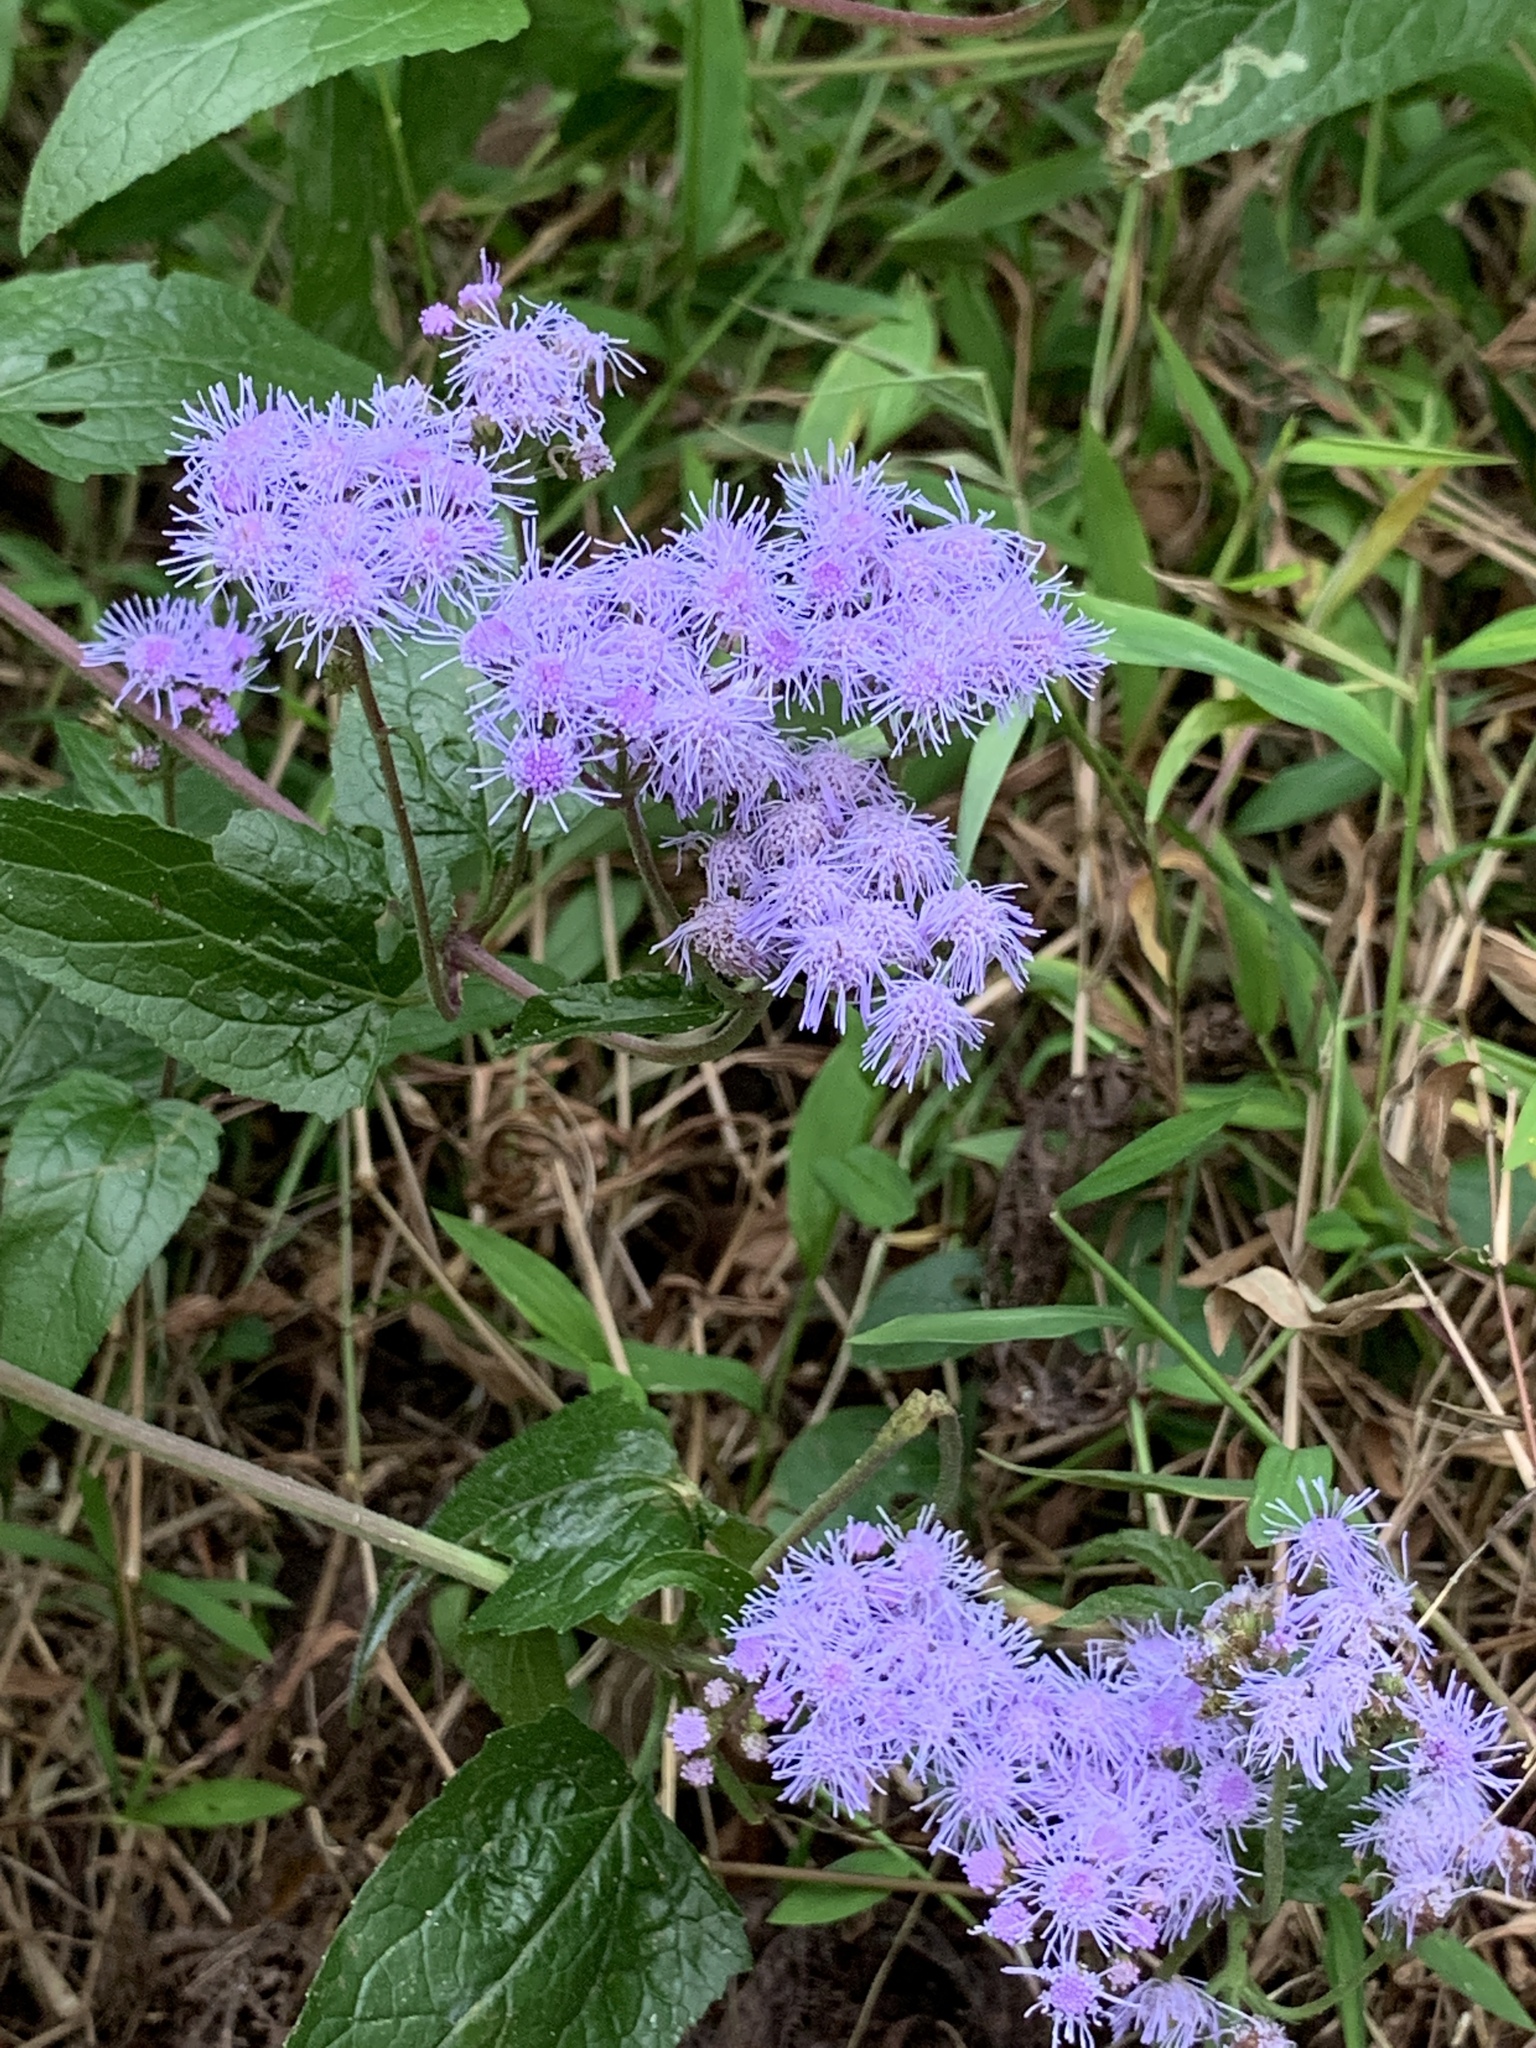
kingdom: Plantae
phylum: Tracheophyta
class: Magnoliopsida
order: Asterales
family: Asteraceae
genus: Conoclinium
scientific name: Conoclinium coelestinum
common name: Blue mistflower
